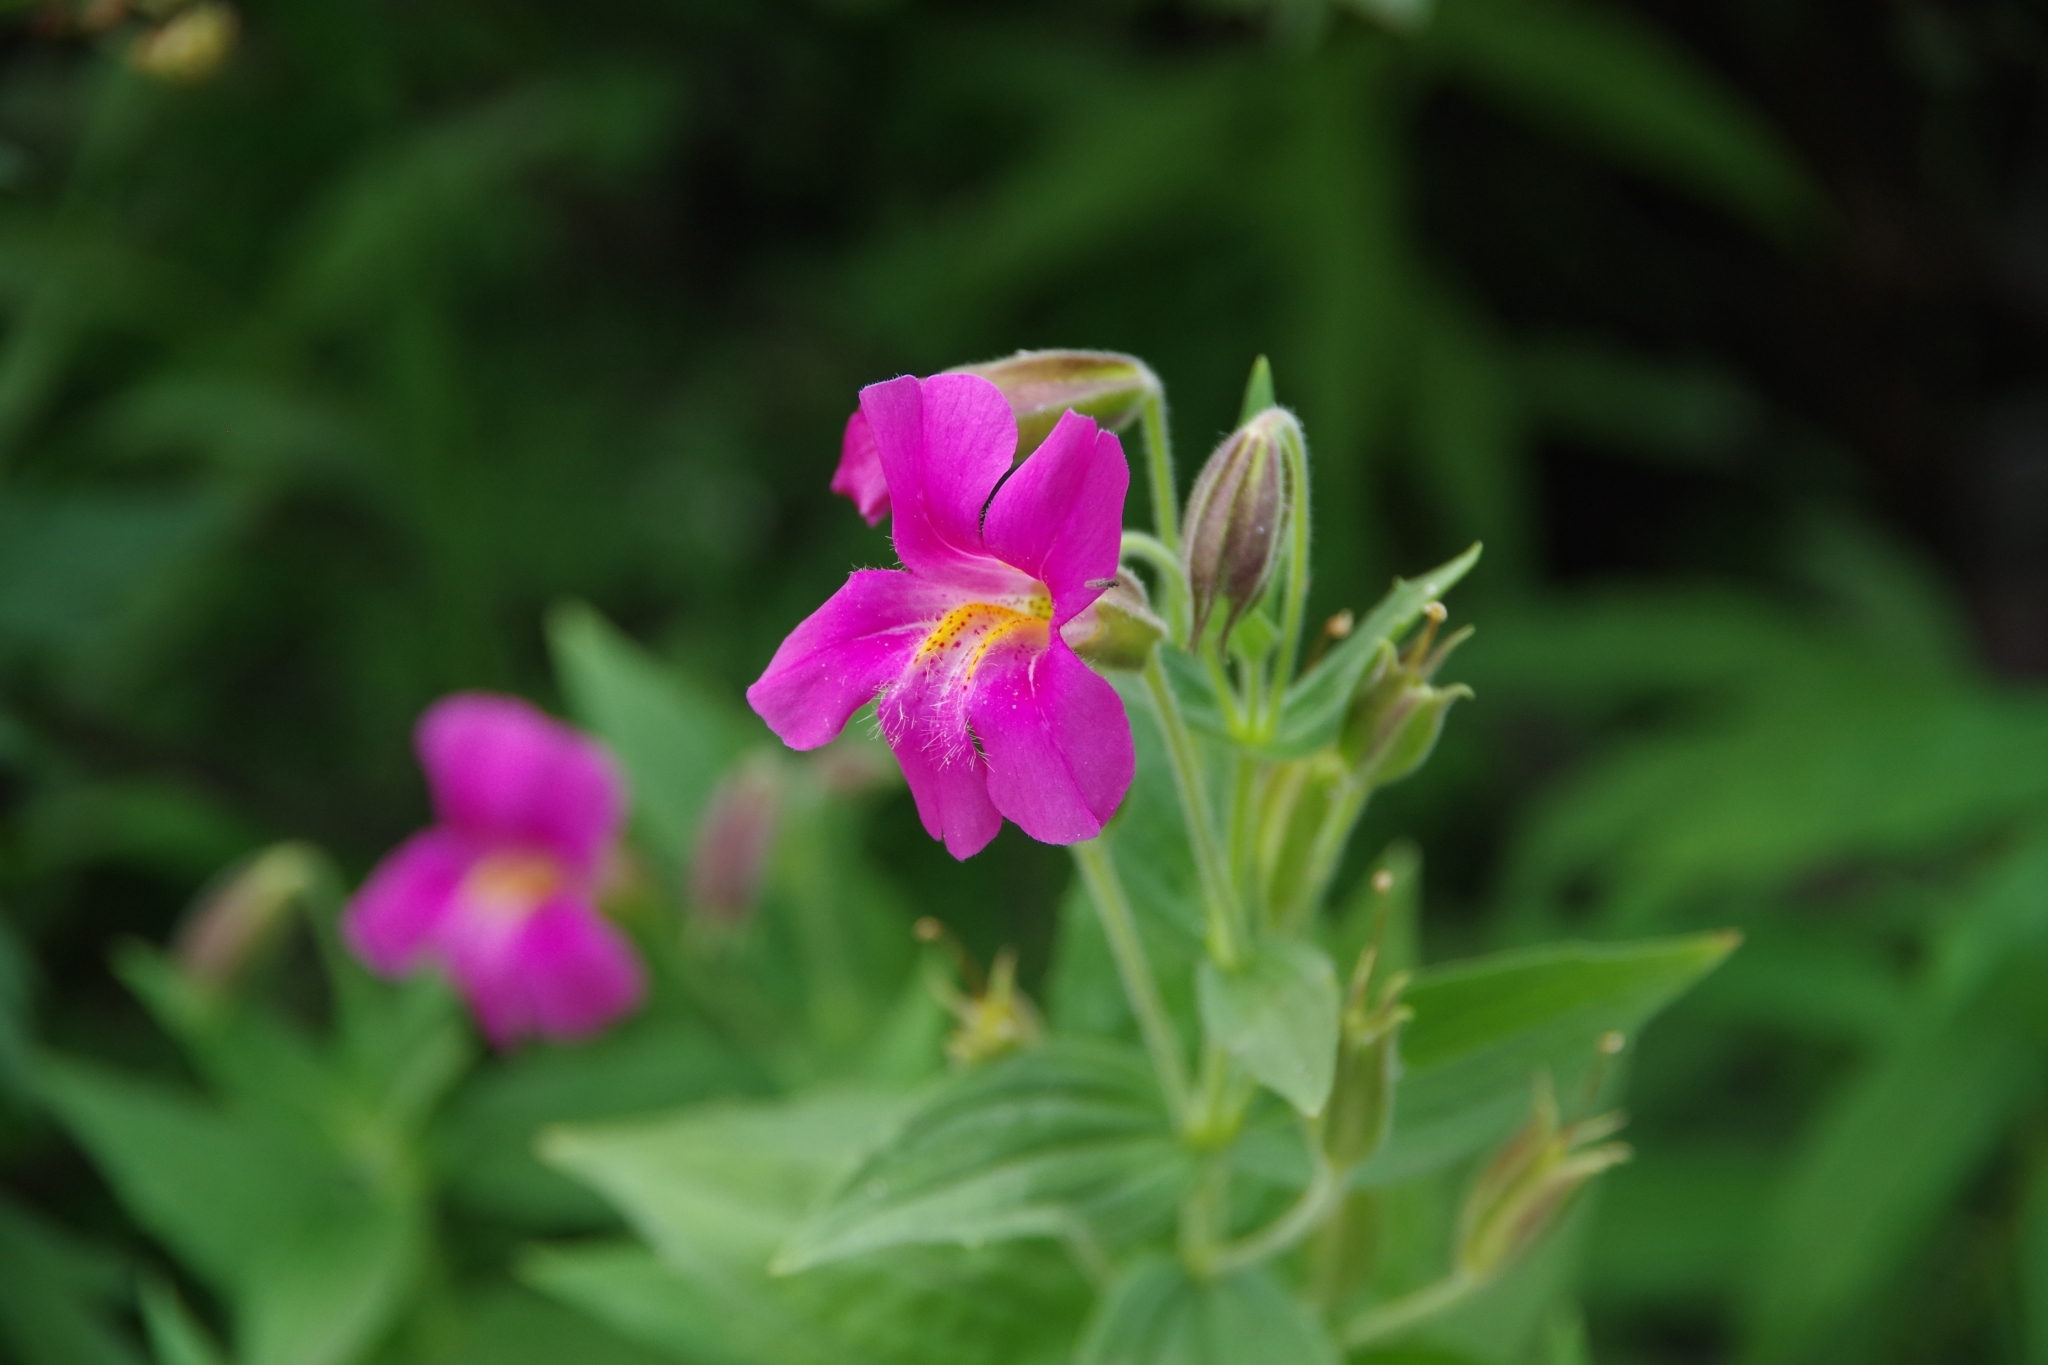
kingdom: Plantae
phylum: Tracheophyta
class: Magnoliopsida
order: Lamiales
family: Phrymaceae
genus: Erythranthe
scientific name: Erythranthe lewisii
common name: Lewis's monkey-flower
